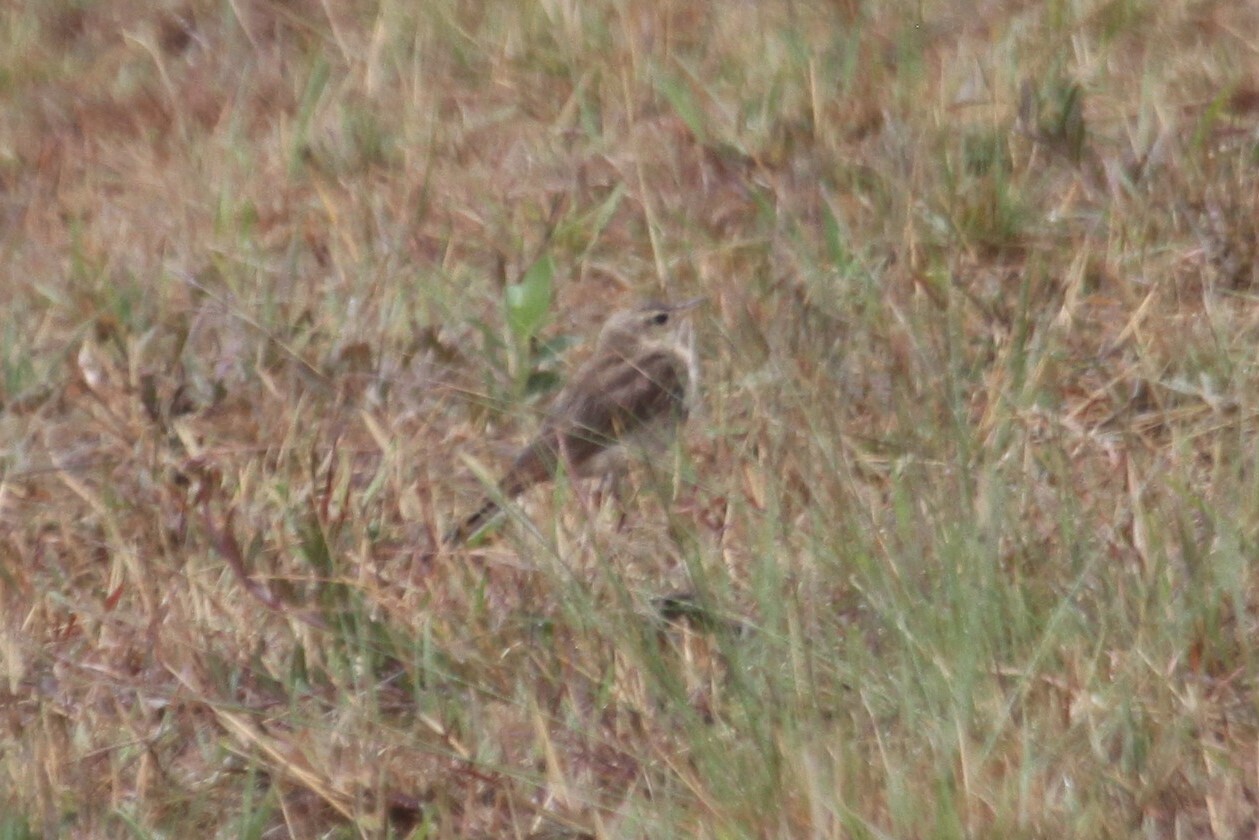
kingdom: Animalia
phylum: Chordata
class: Aves
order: Passeriformes
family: Motacillidae
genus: Anthus
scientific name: Anthus leucophrys
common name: Plain-backed pipit
